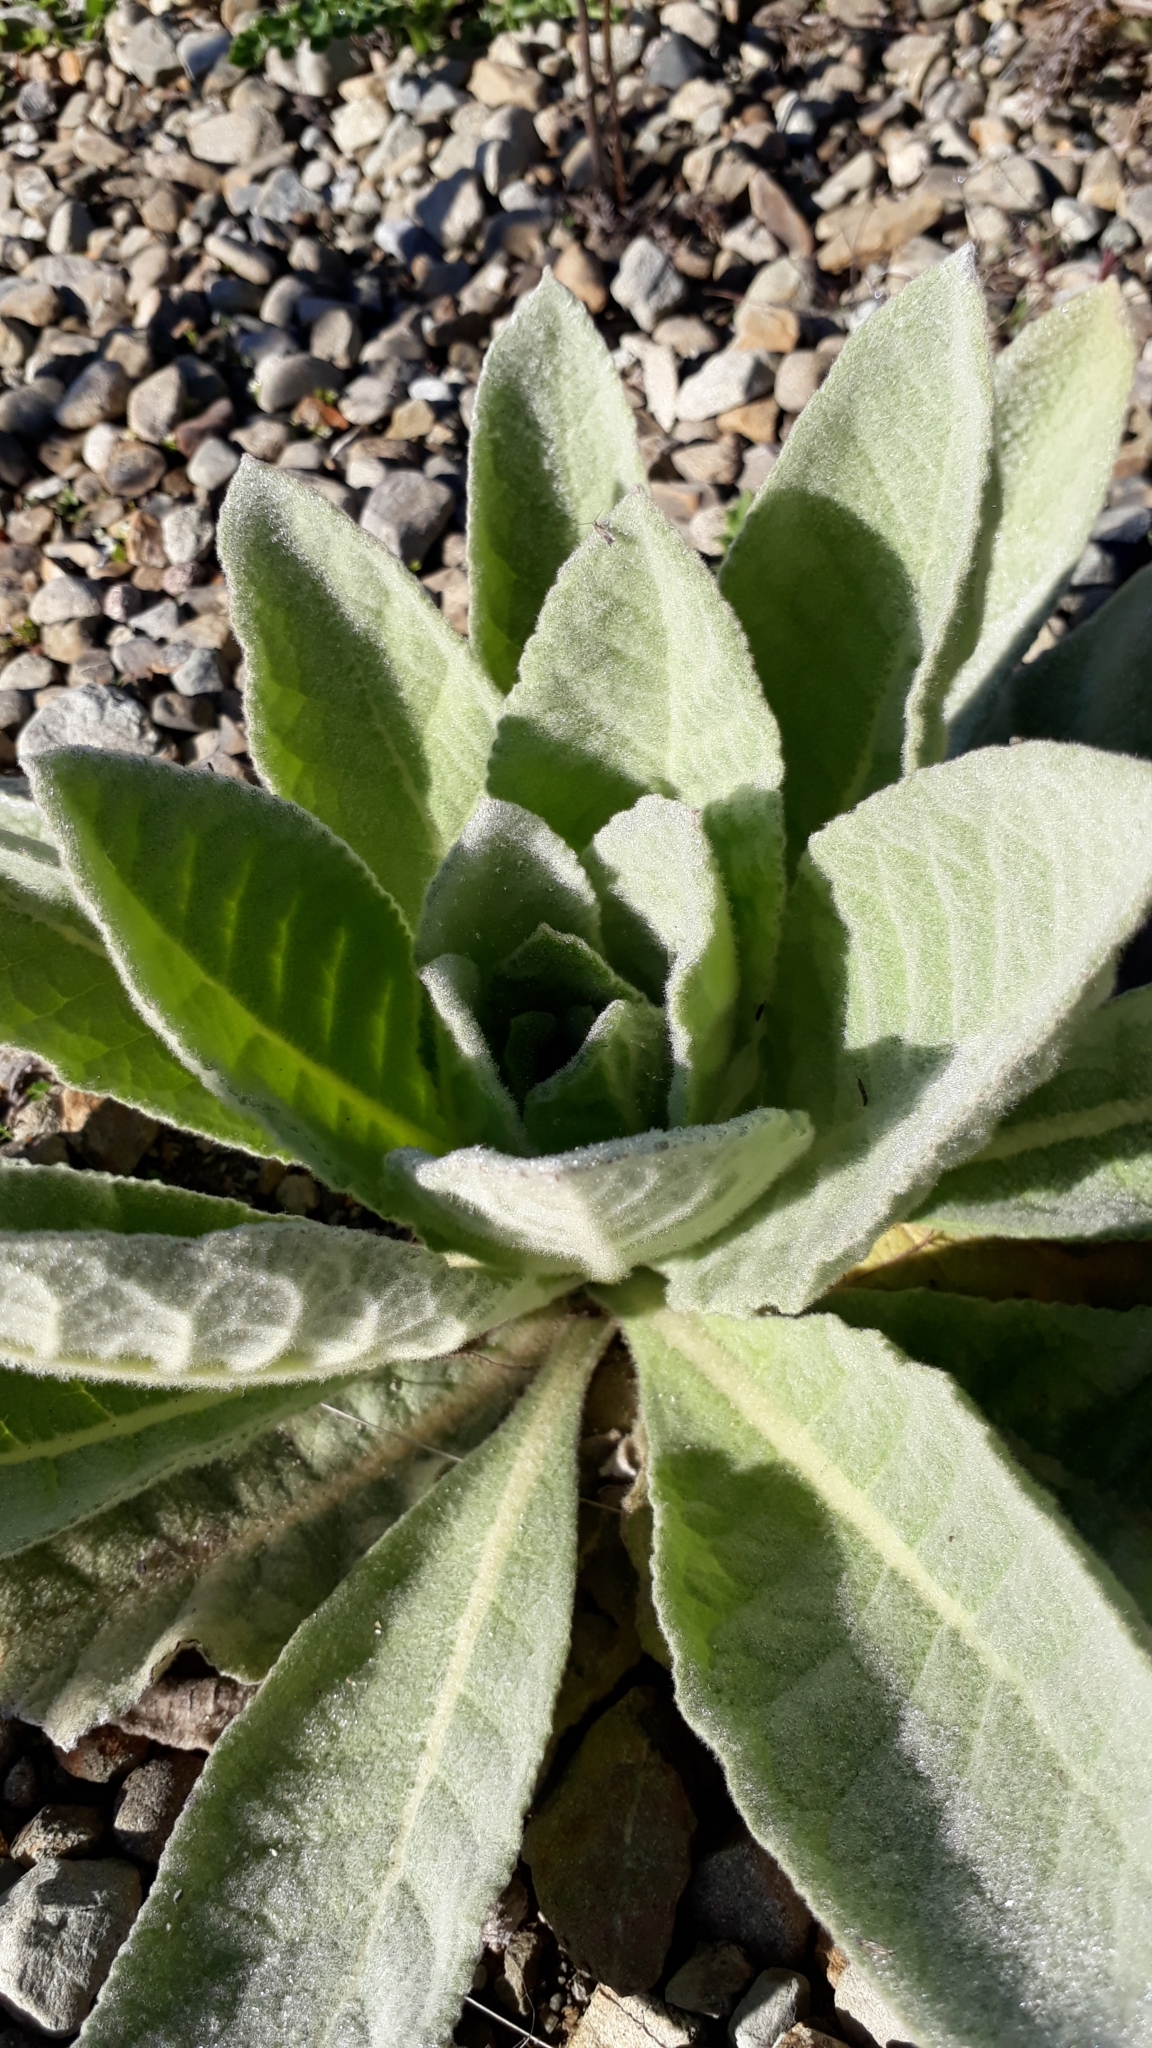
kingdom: Plantae
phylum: Tracheophyta
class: Magnoliopsida
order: Lamiales
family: Scrophulariaceae
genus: Verbascum
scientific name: Verbascum thapsus
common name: Common mullein
